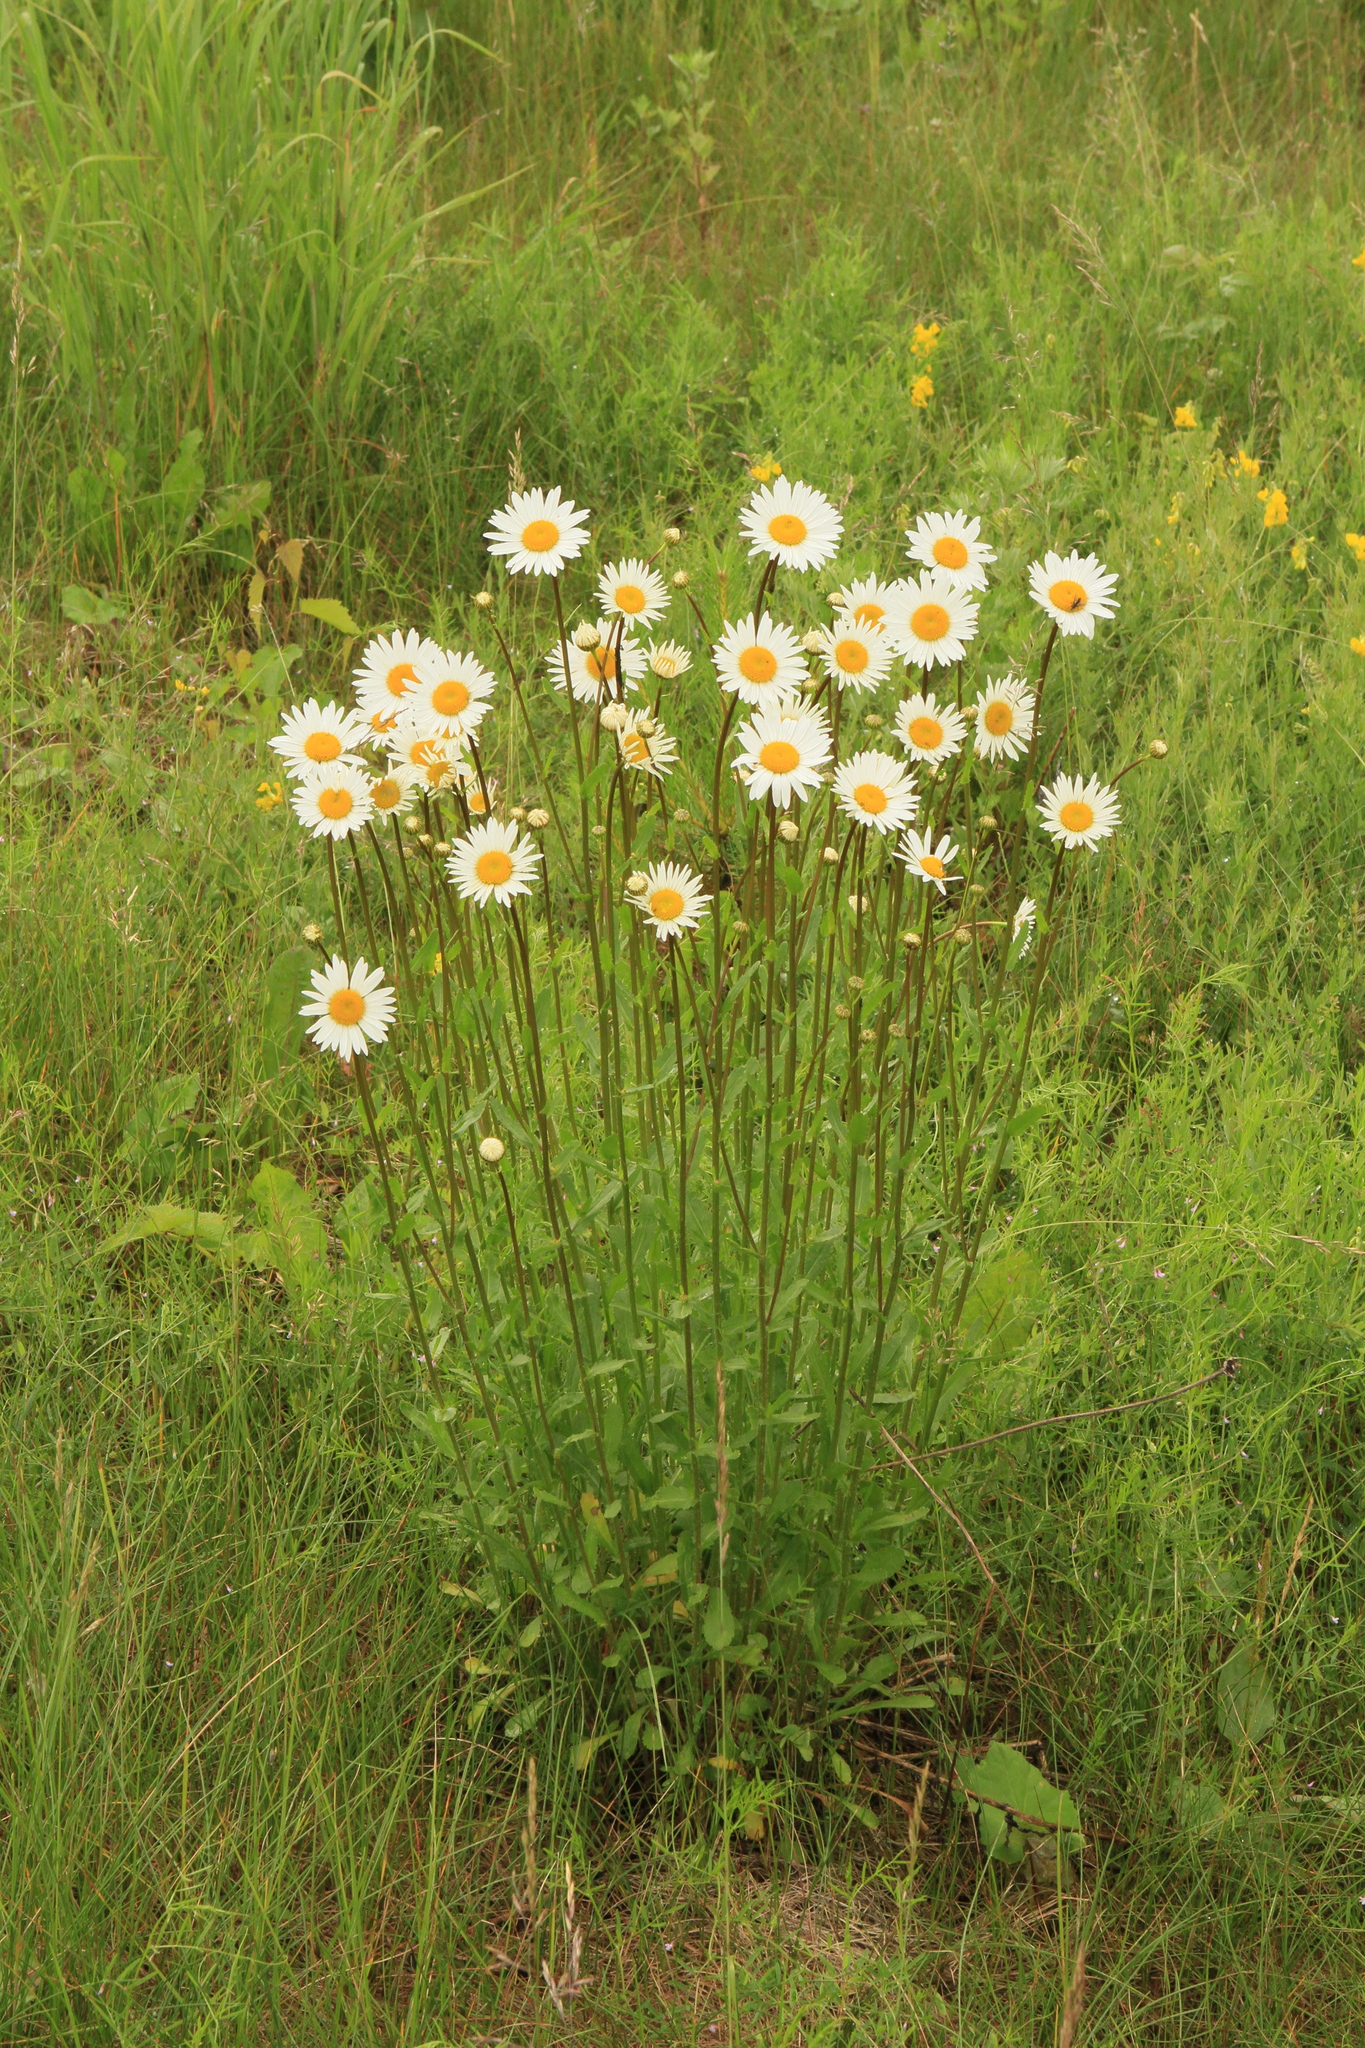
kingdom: Plantae
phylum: Tracheophyta
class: Magnoliopsida
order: Asterales
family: Asteraceae
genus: Leucanthemum
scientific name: Leucanthemum ircutianum
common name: Daisy
